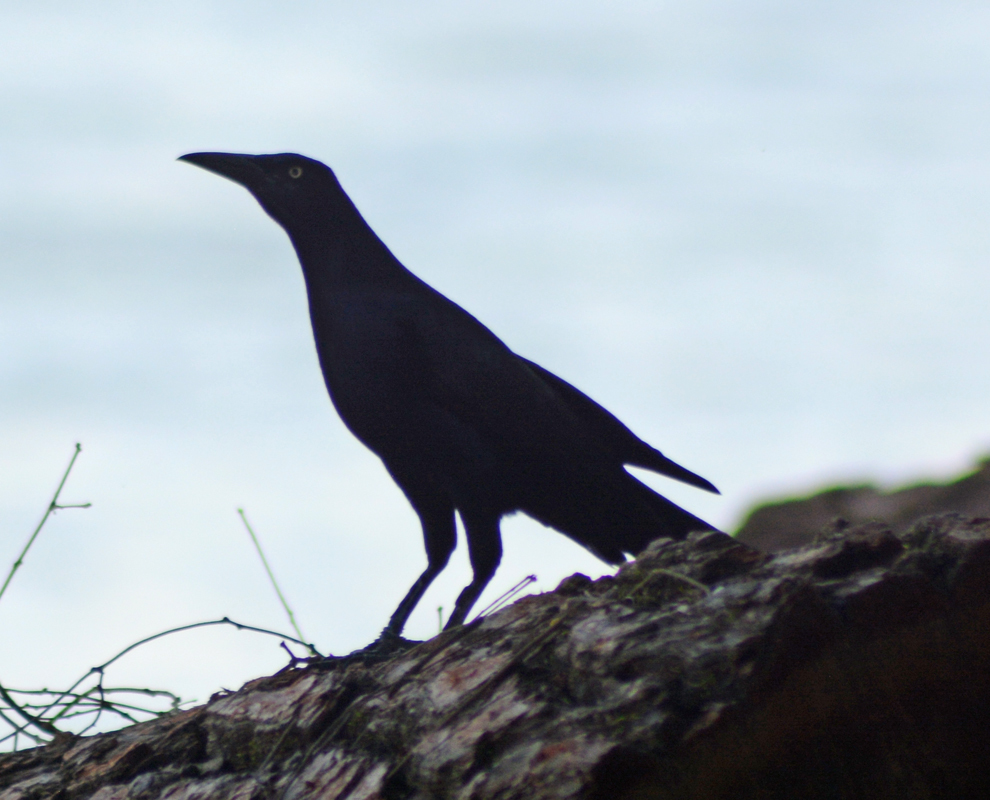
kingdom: Animalia
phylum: Chordata
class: Aves
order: Passeriformes
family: Icteridae
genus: Quiscalus
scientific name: Quiscalus mexicanus
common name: Great-tailed grackle
